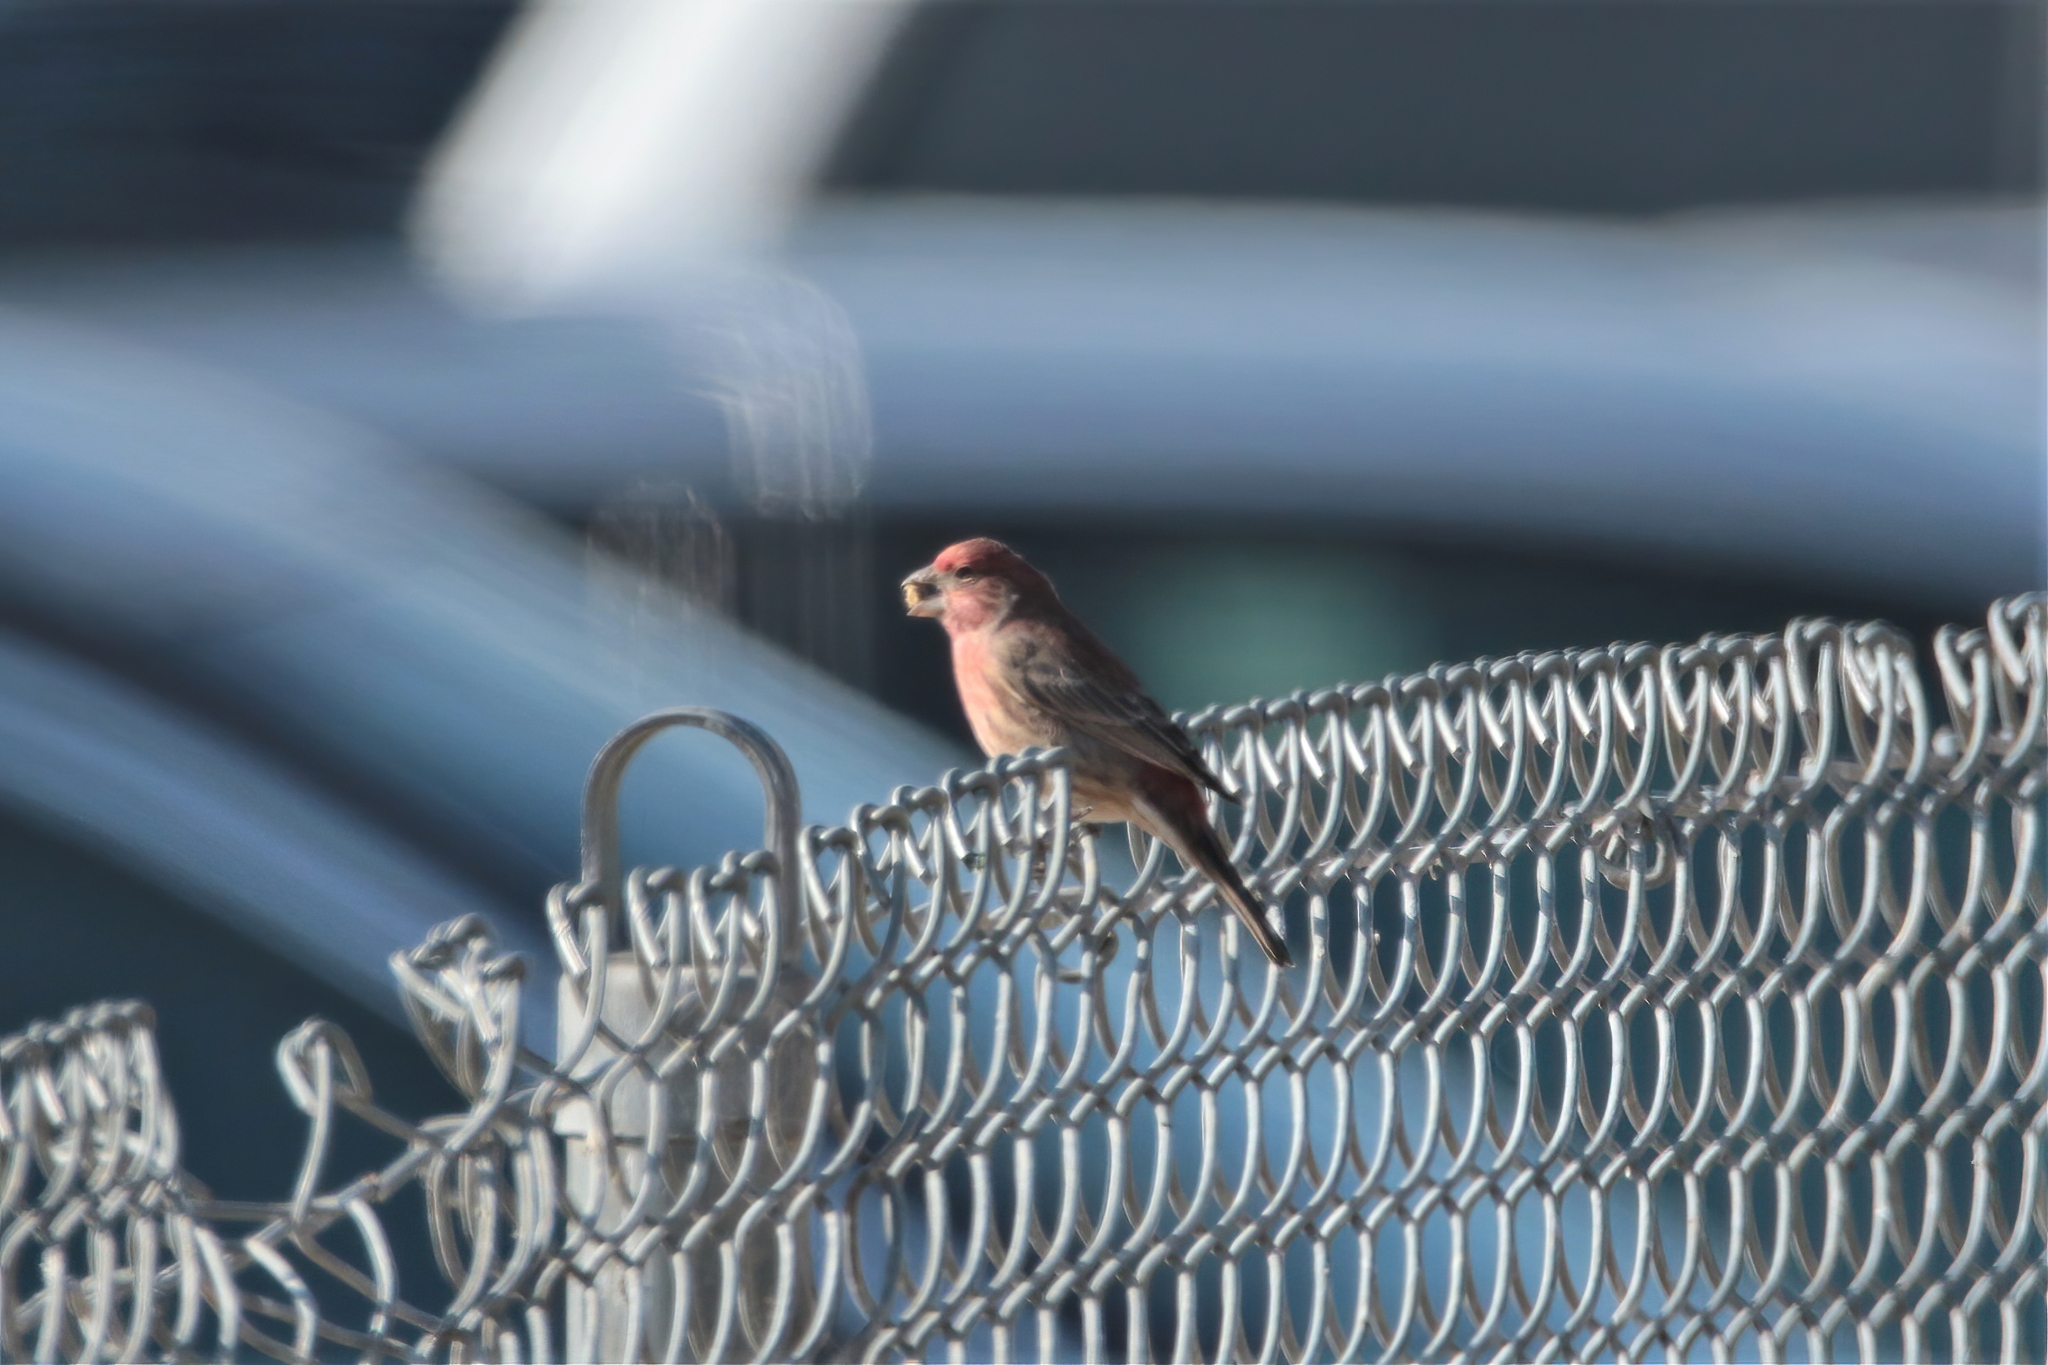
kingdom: Animalia
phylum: Chordata
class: Aves
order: Passeriformes
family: Fringillidae
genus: Haemorhous
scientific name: Haemorhous mexicanus
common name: House finch
